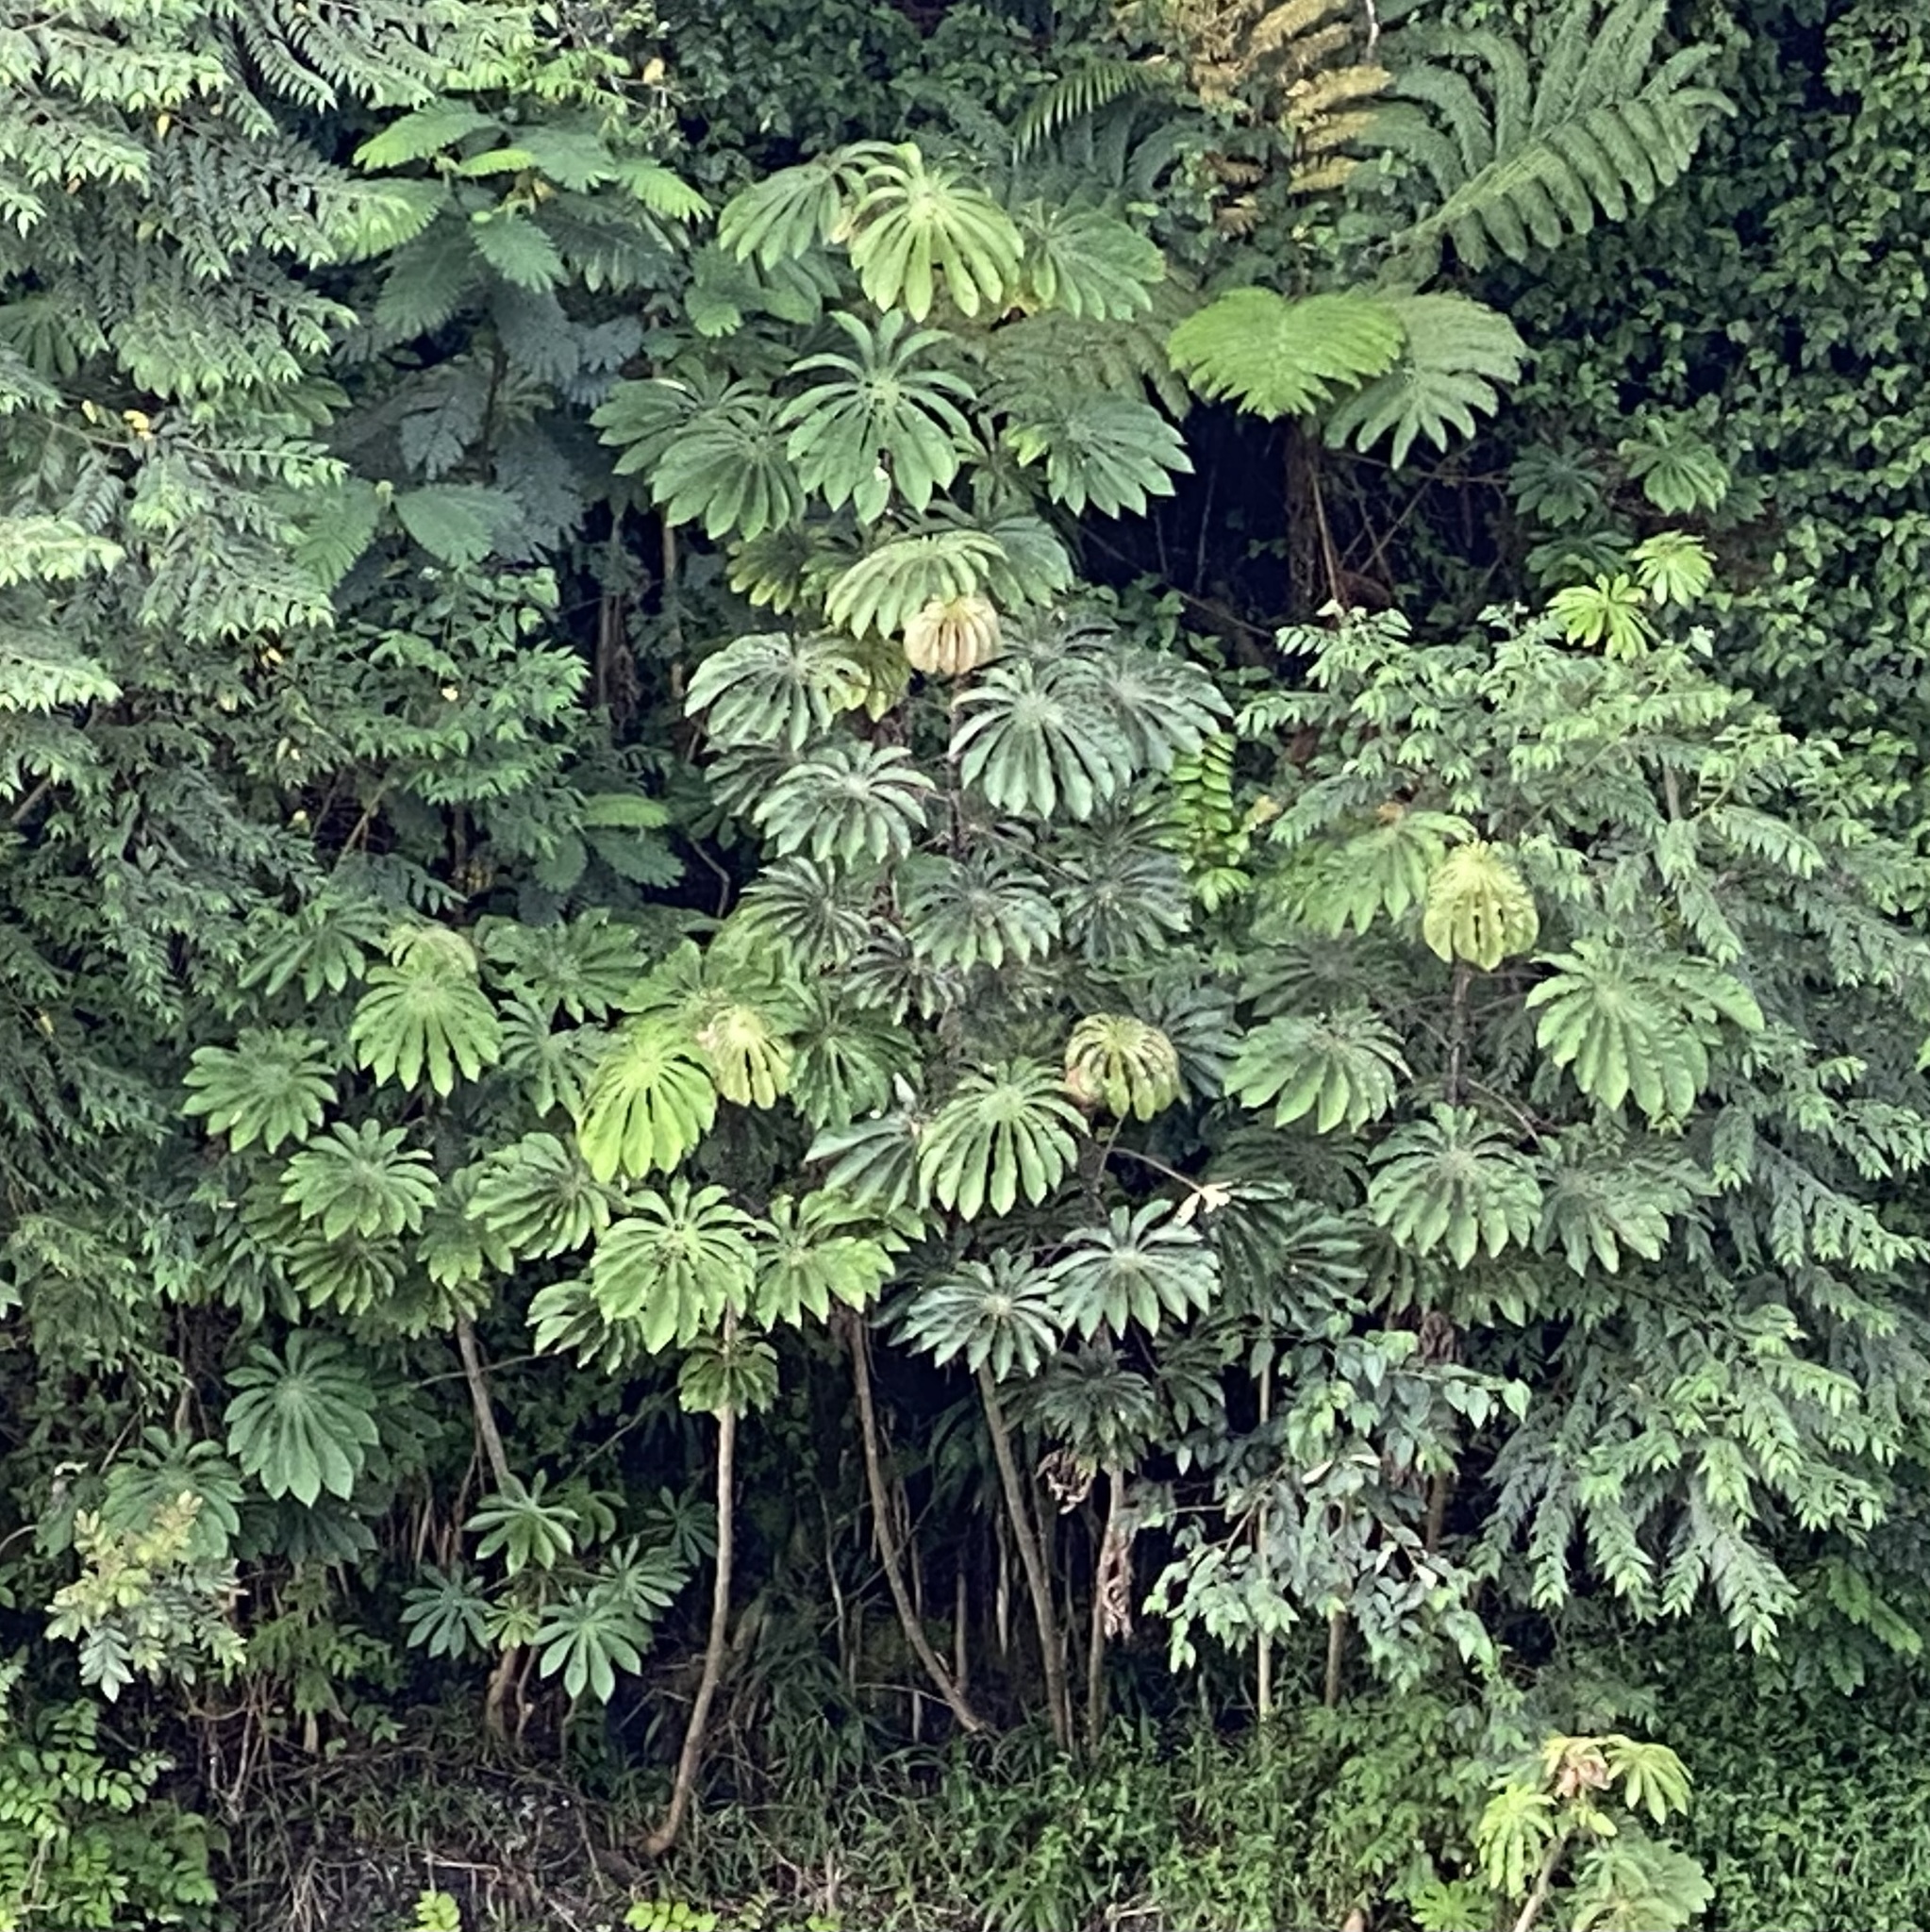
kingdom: Plantae
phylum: Tracheophyta
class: Magnoliopsida
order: Rosales
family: Urticaceae
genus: Cecropia
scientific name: Cecropia obtusifolia
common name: Trumpet tree
